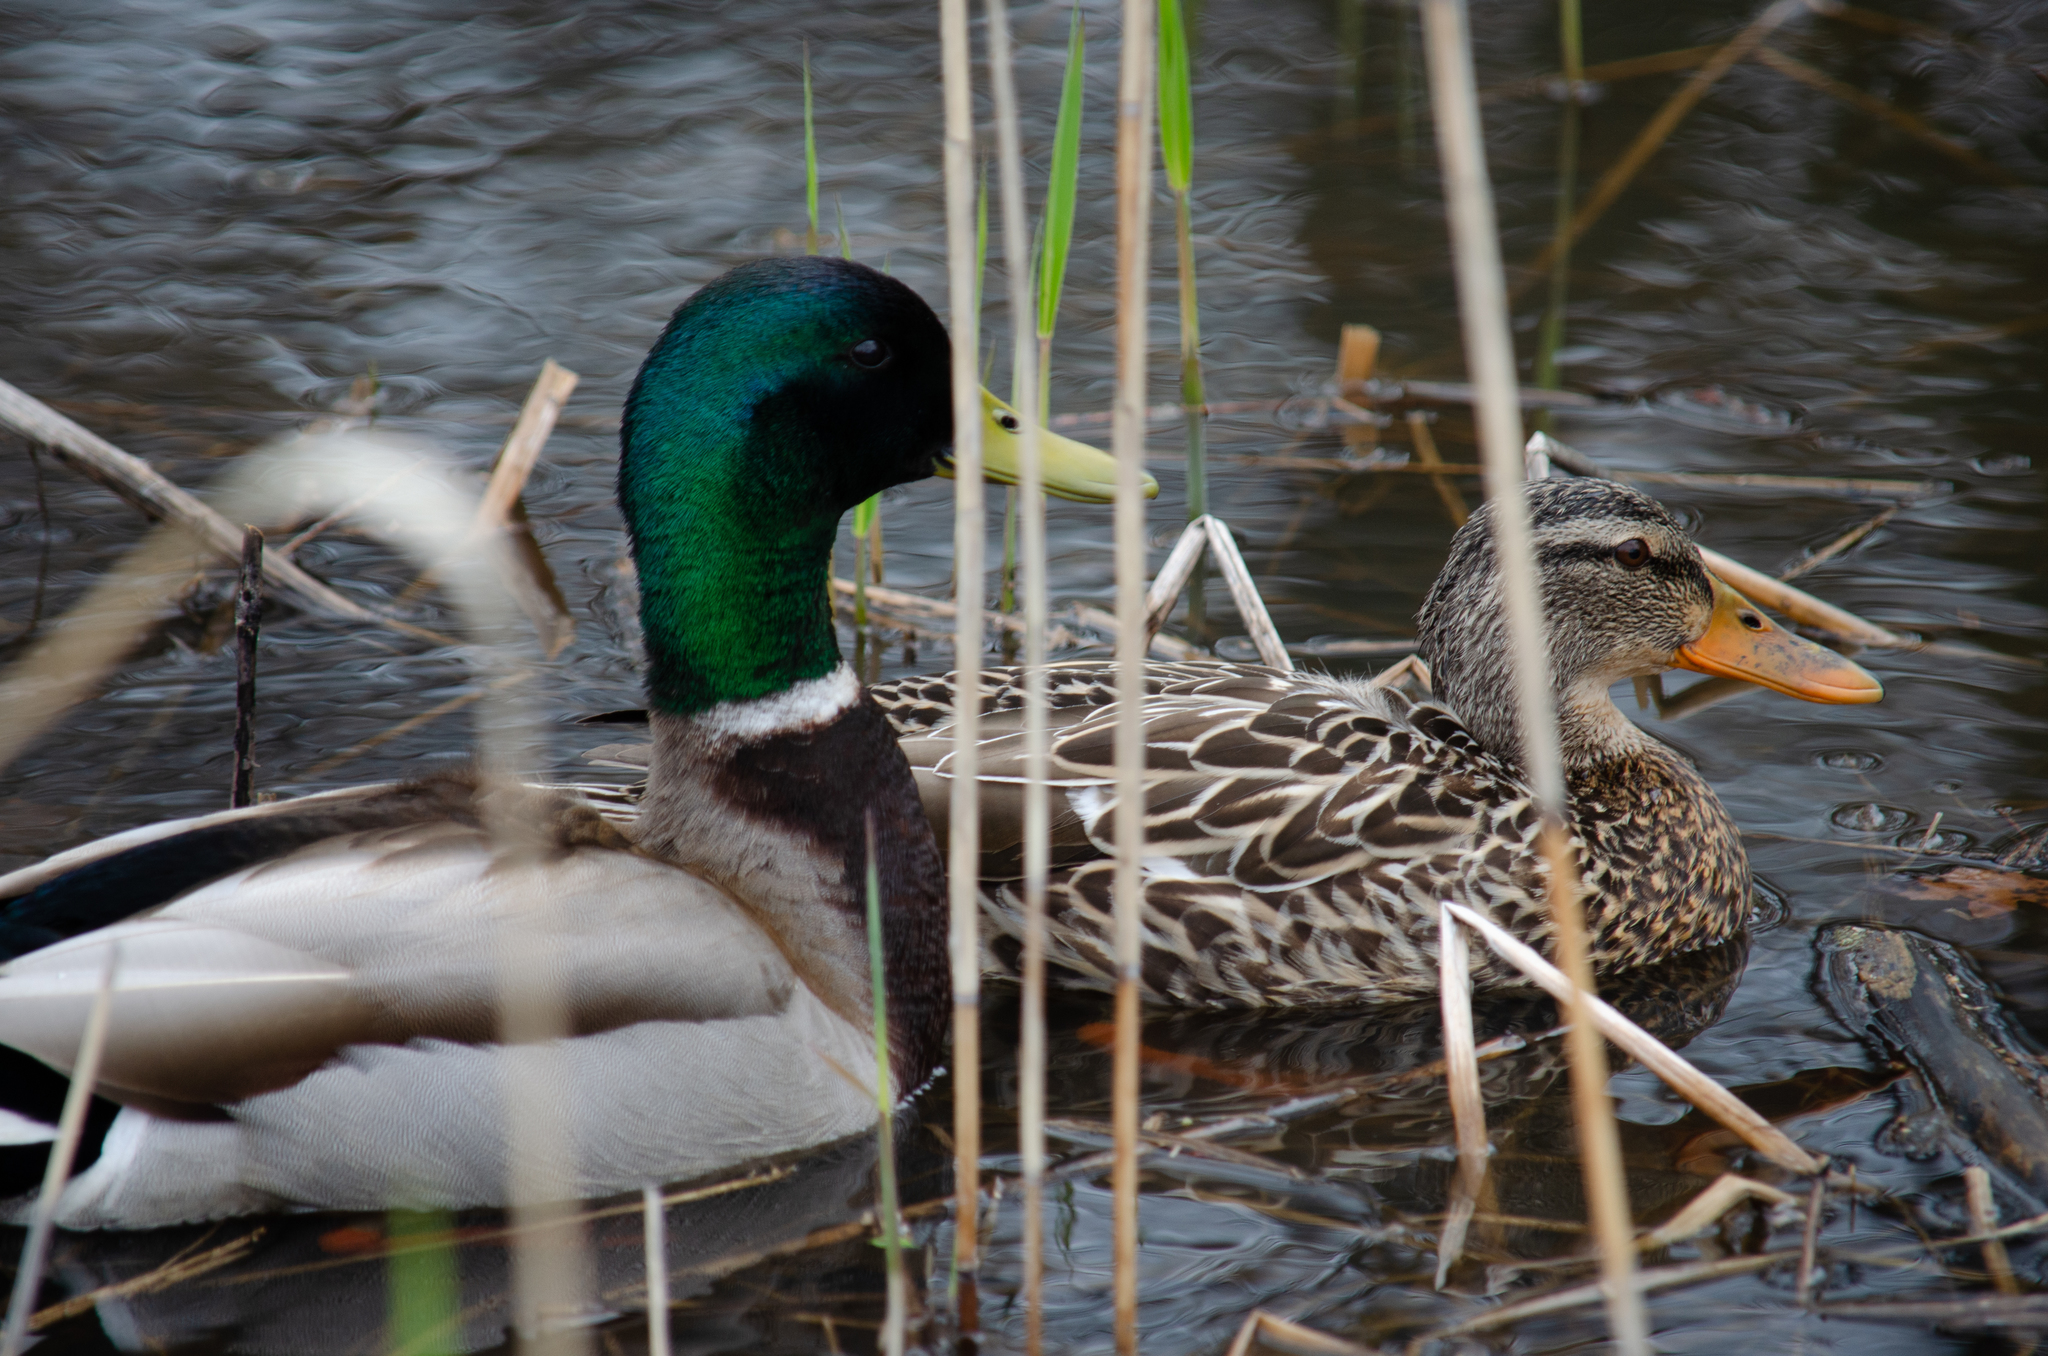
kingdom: Animalia
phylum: Chordata
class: Aves
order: Anseriformes
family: Anatidae
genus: Anas
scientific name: Anas platyrhynchos
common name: Mallard
